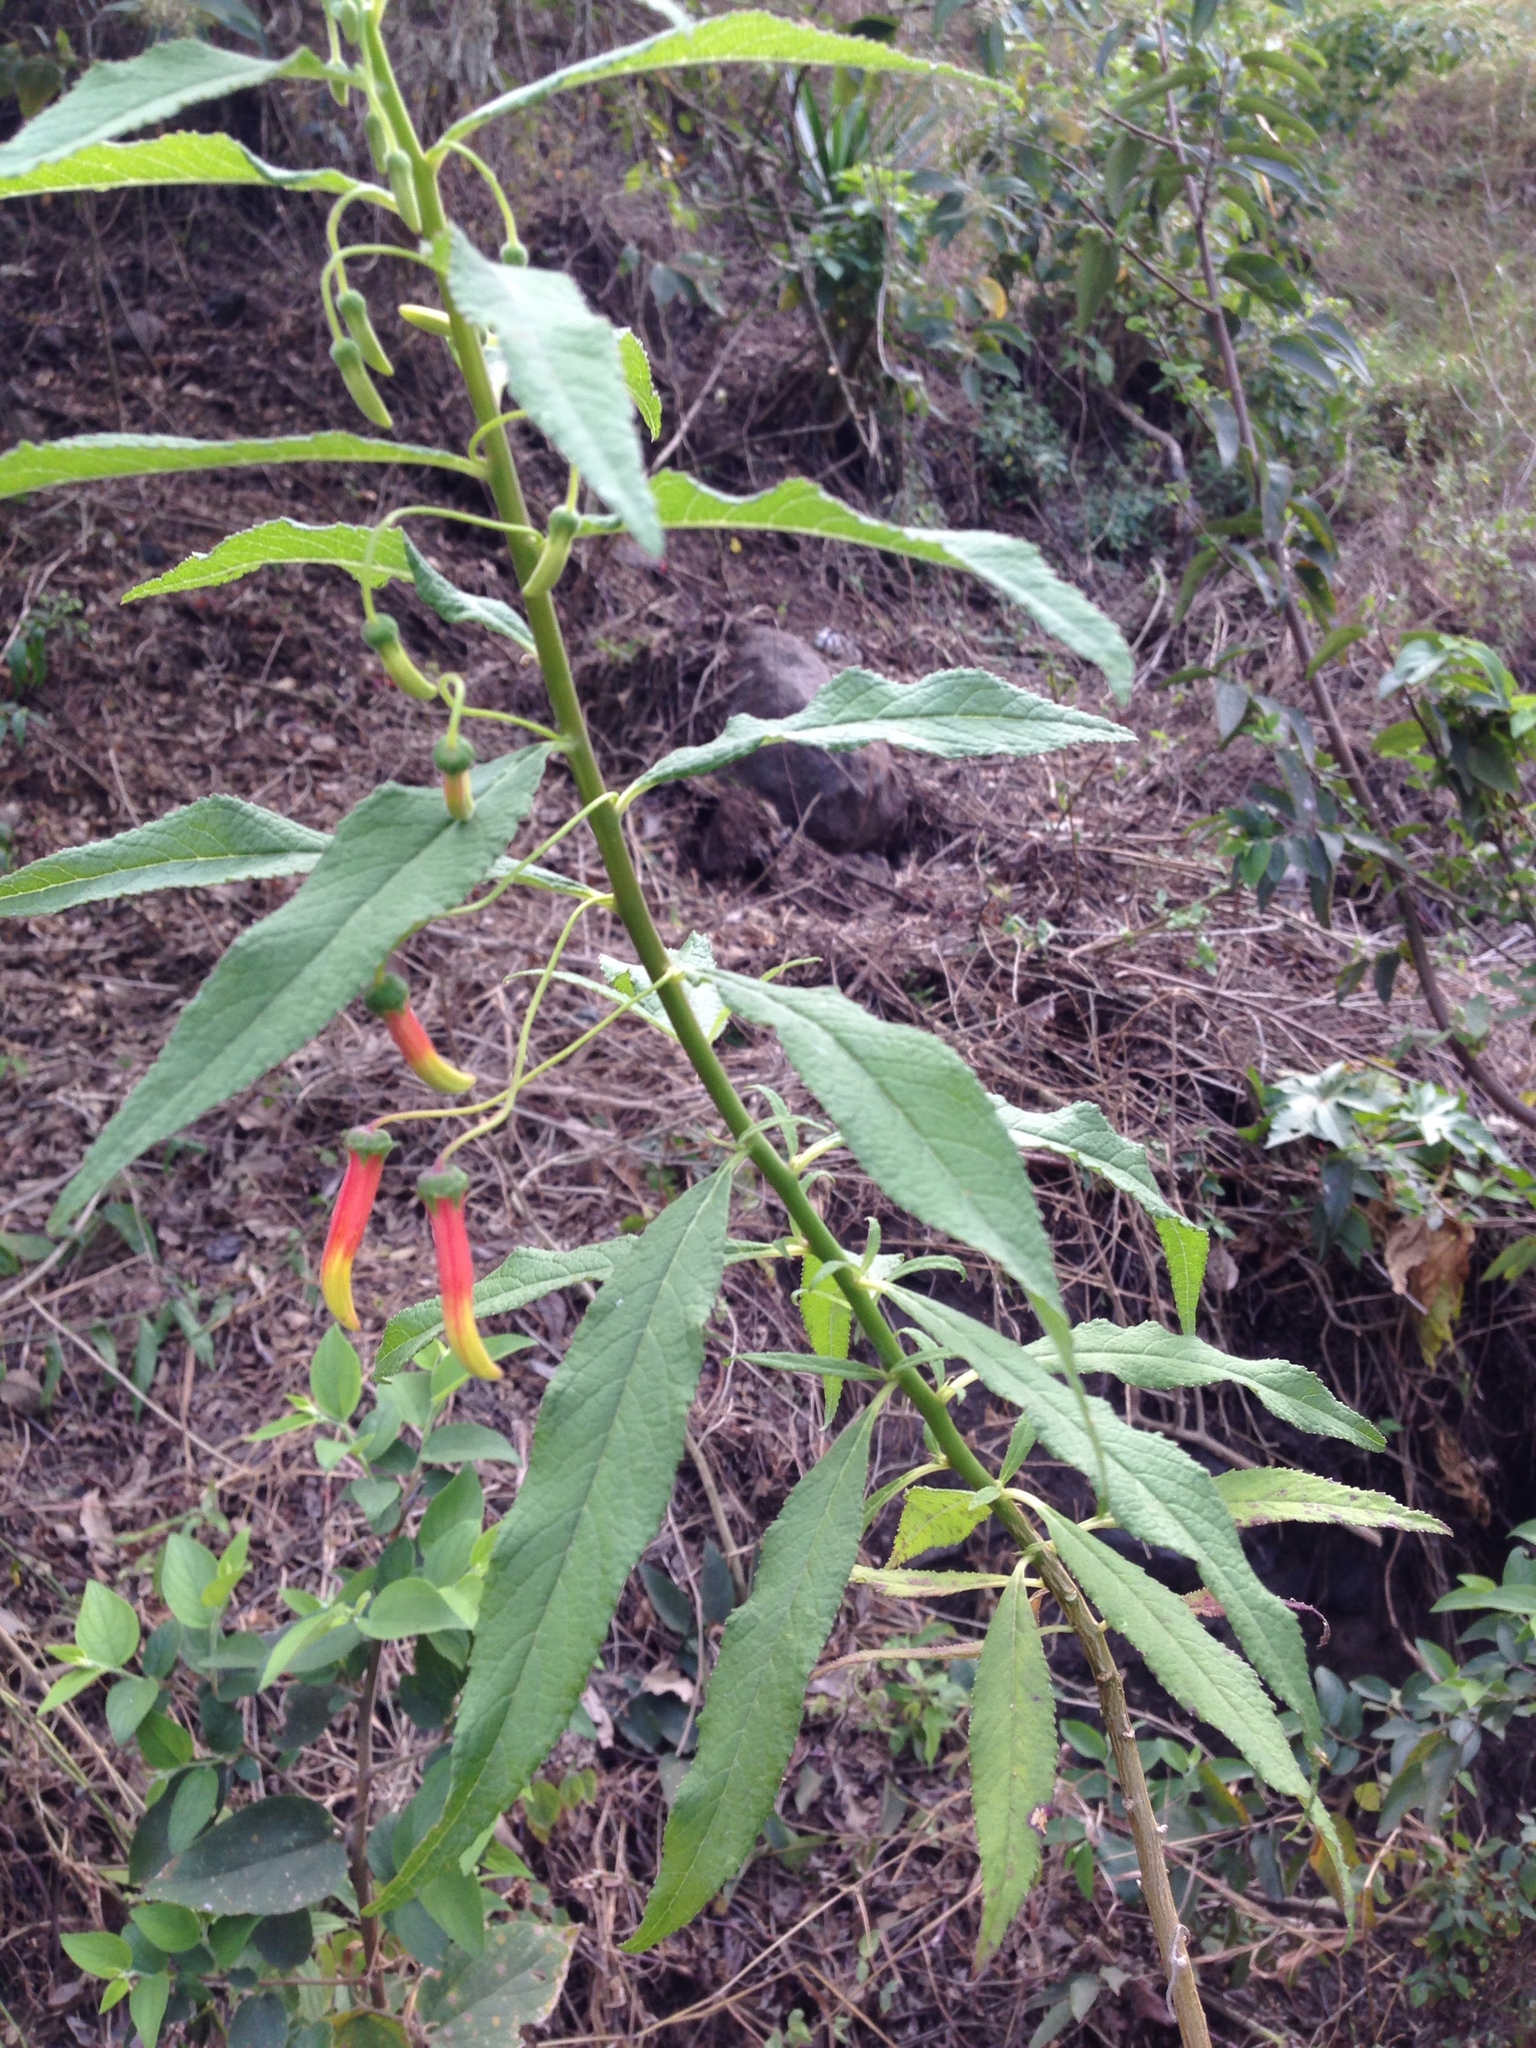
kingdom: Plantae
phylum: Tracheophyta
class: Magnoliopsida
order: Asterales
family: Campanulaceae
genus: Lobelia
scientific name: Lobelia laxiflora
